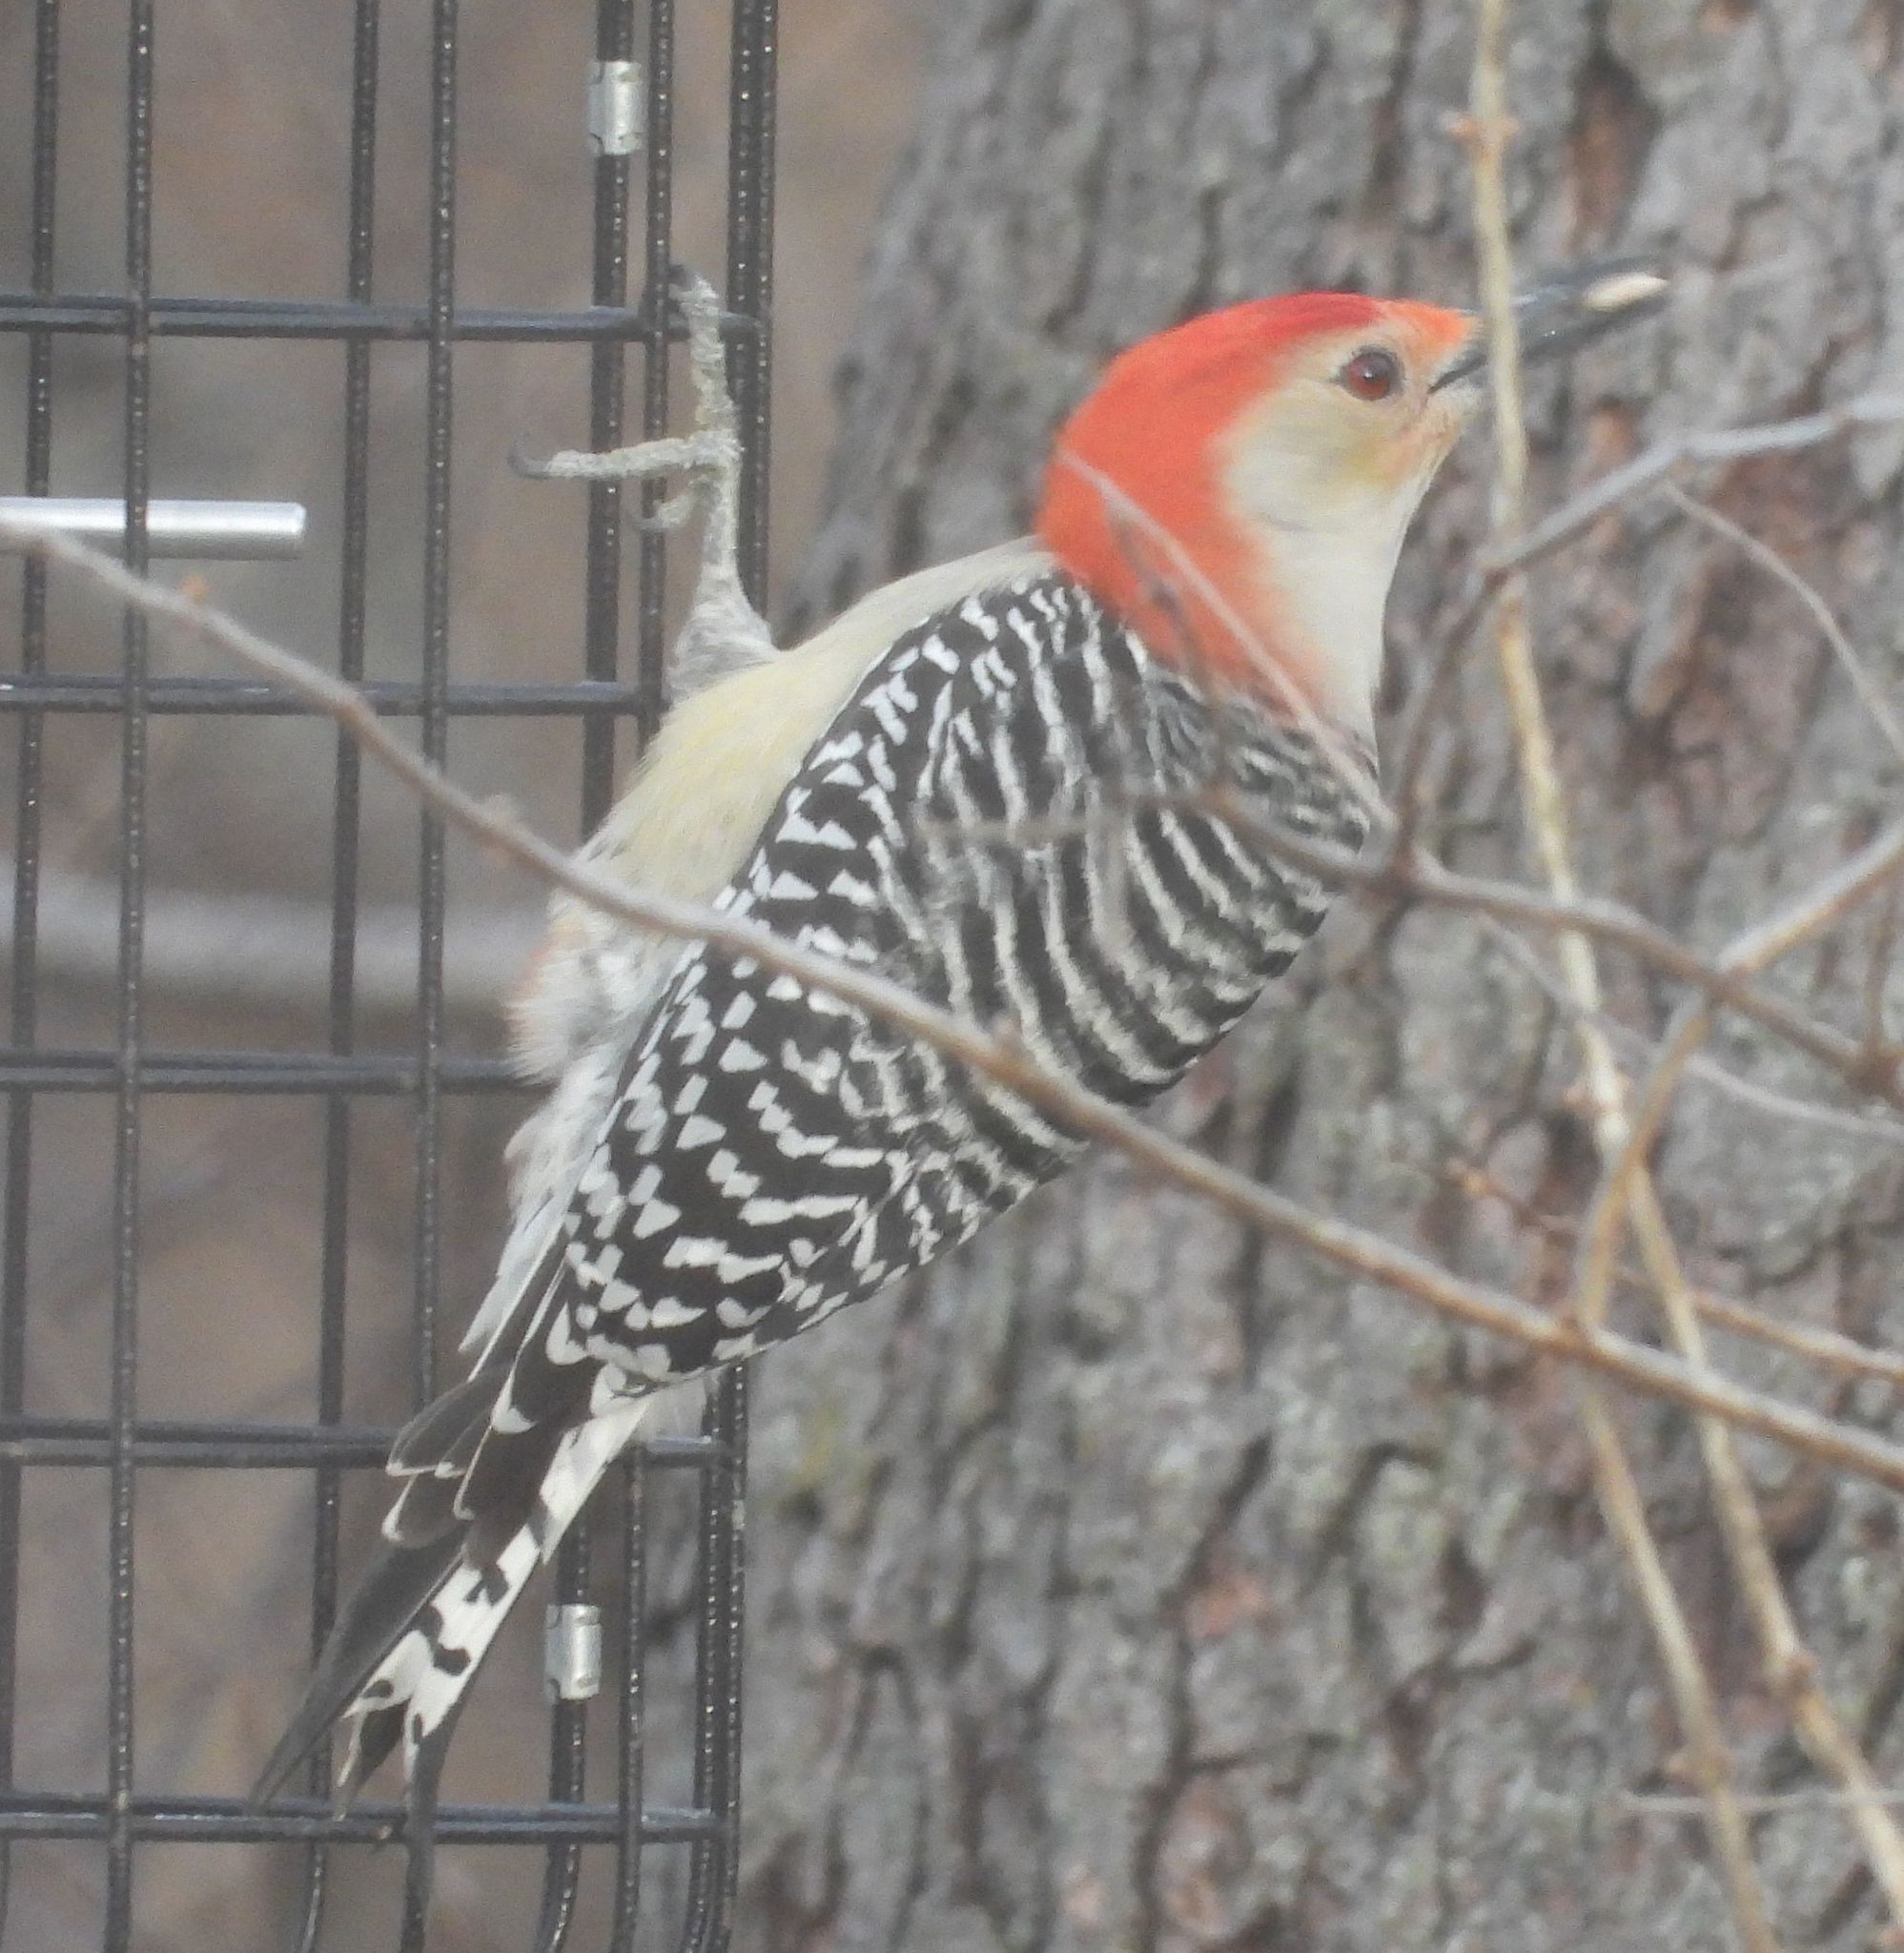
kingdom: Animalia
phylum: Chordata
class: Aves
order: Piciformes
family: Picidae
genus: Melanerpes
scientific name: Melanerpes carolinus
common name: Red-bellied woodpecker
